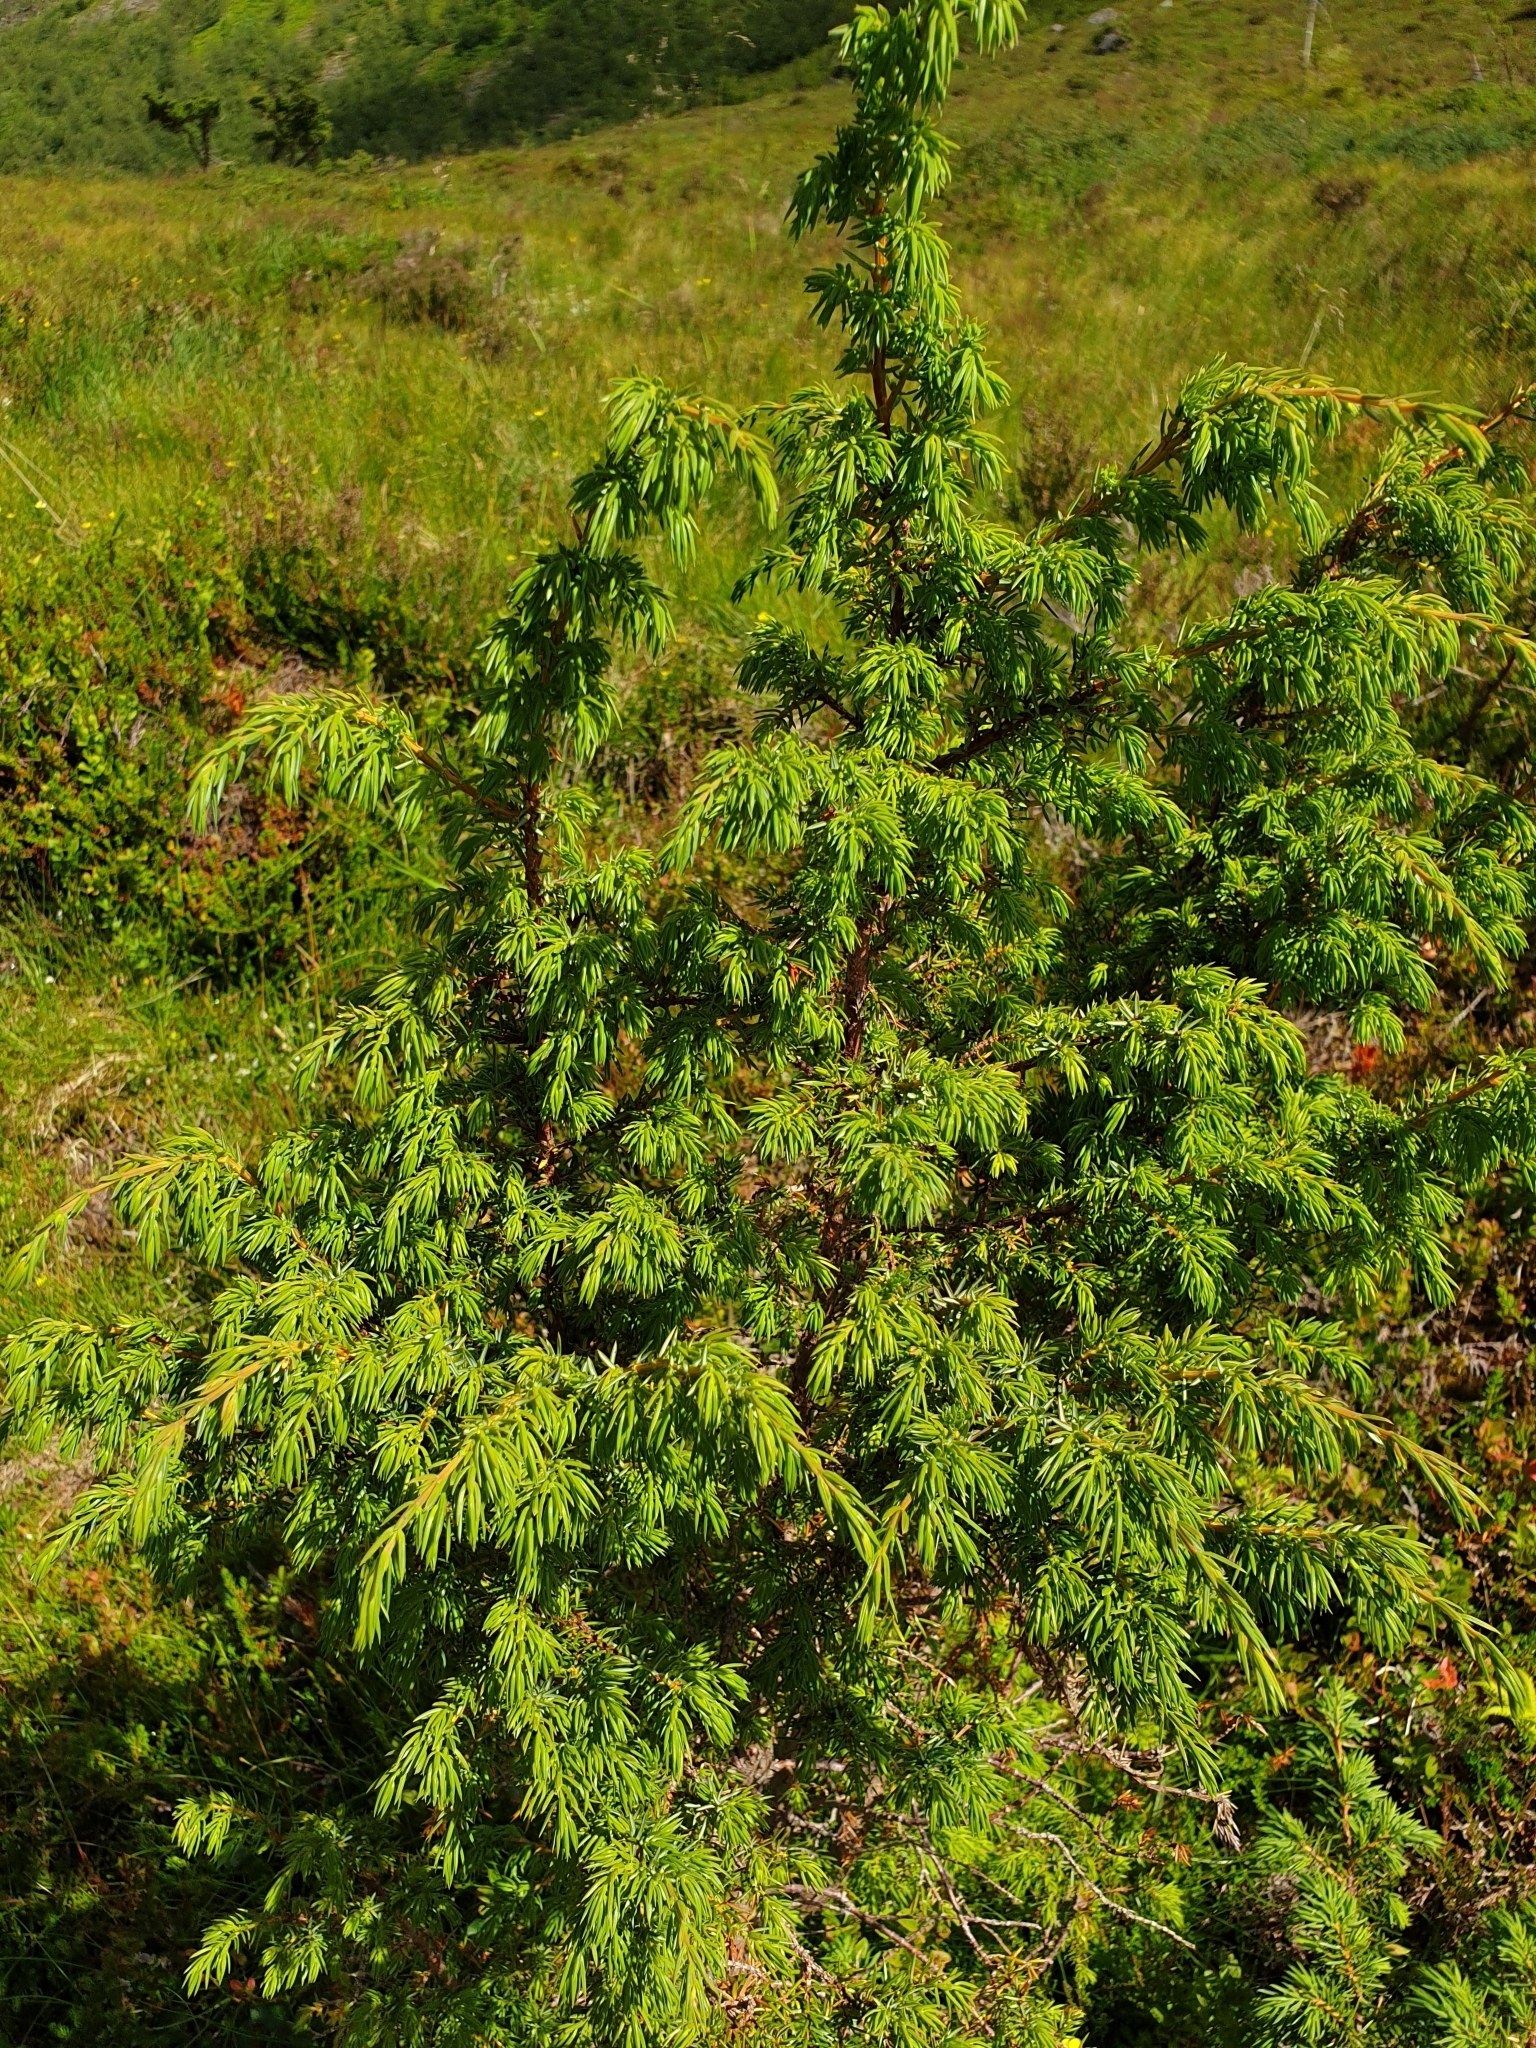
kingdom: Plantae
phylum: Tracheophyta
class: Pinopsida
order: Pinales
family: Cupressaceae
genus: Juniperus
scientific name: Juniperus communis
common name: Common juniper
